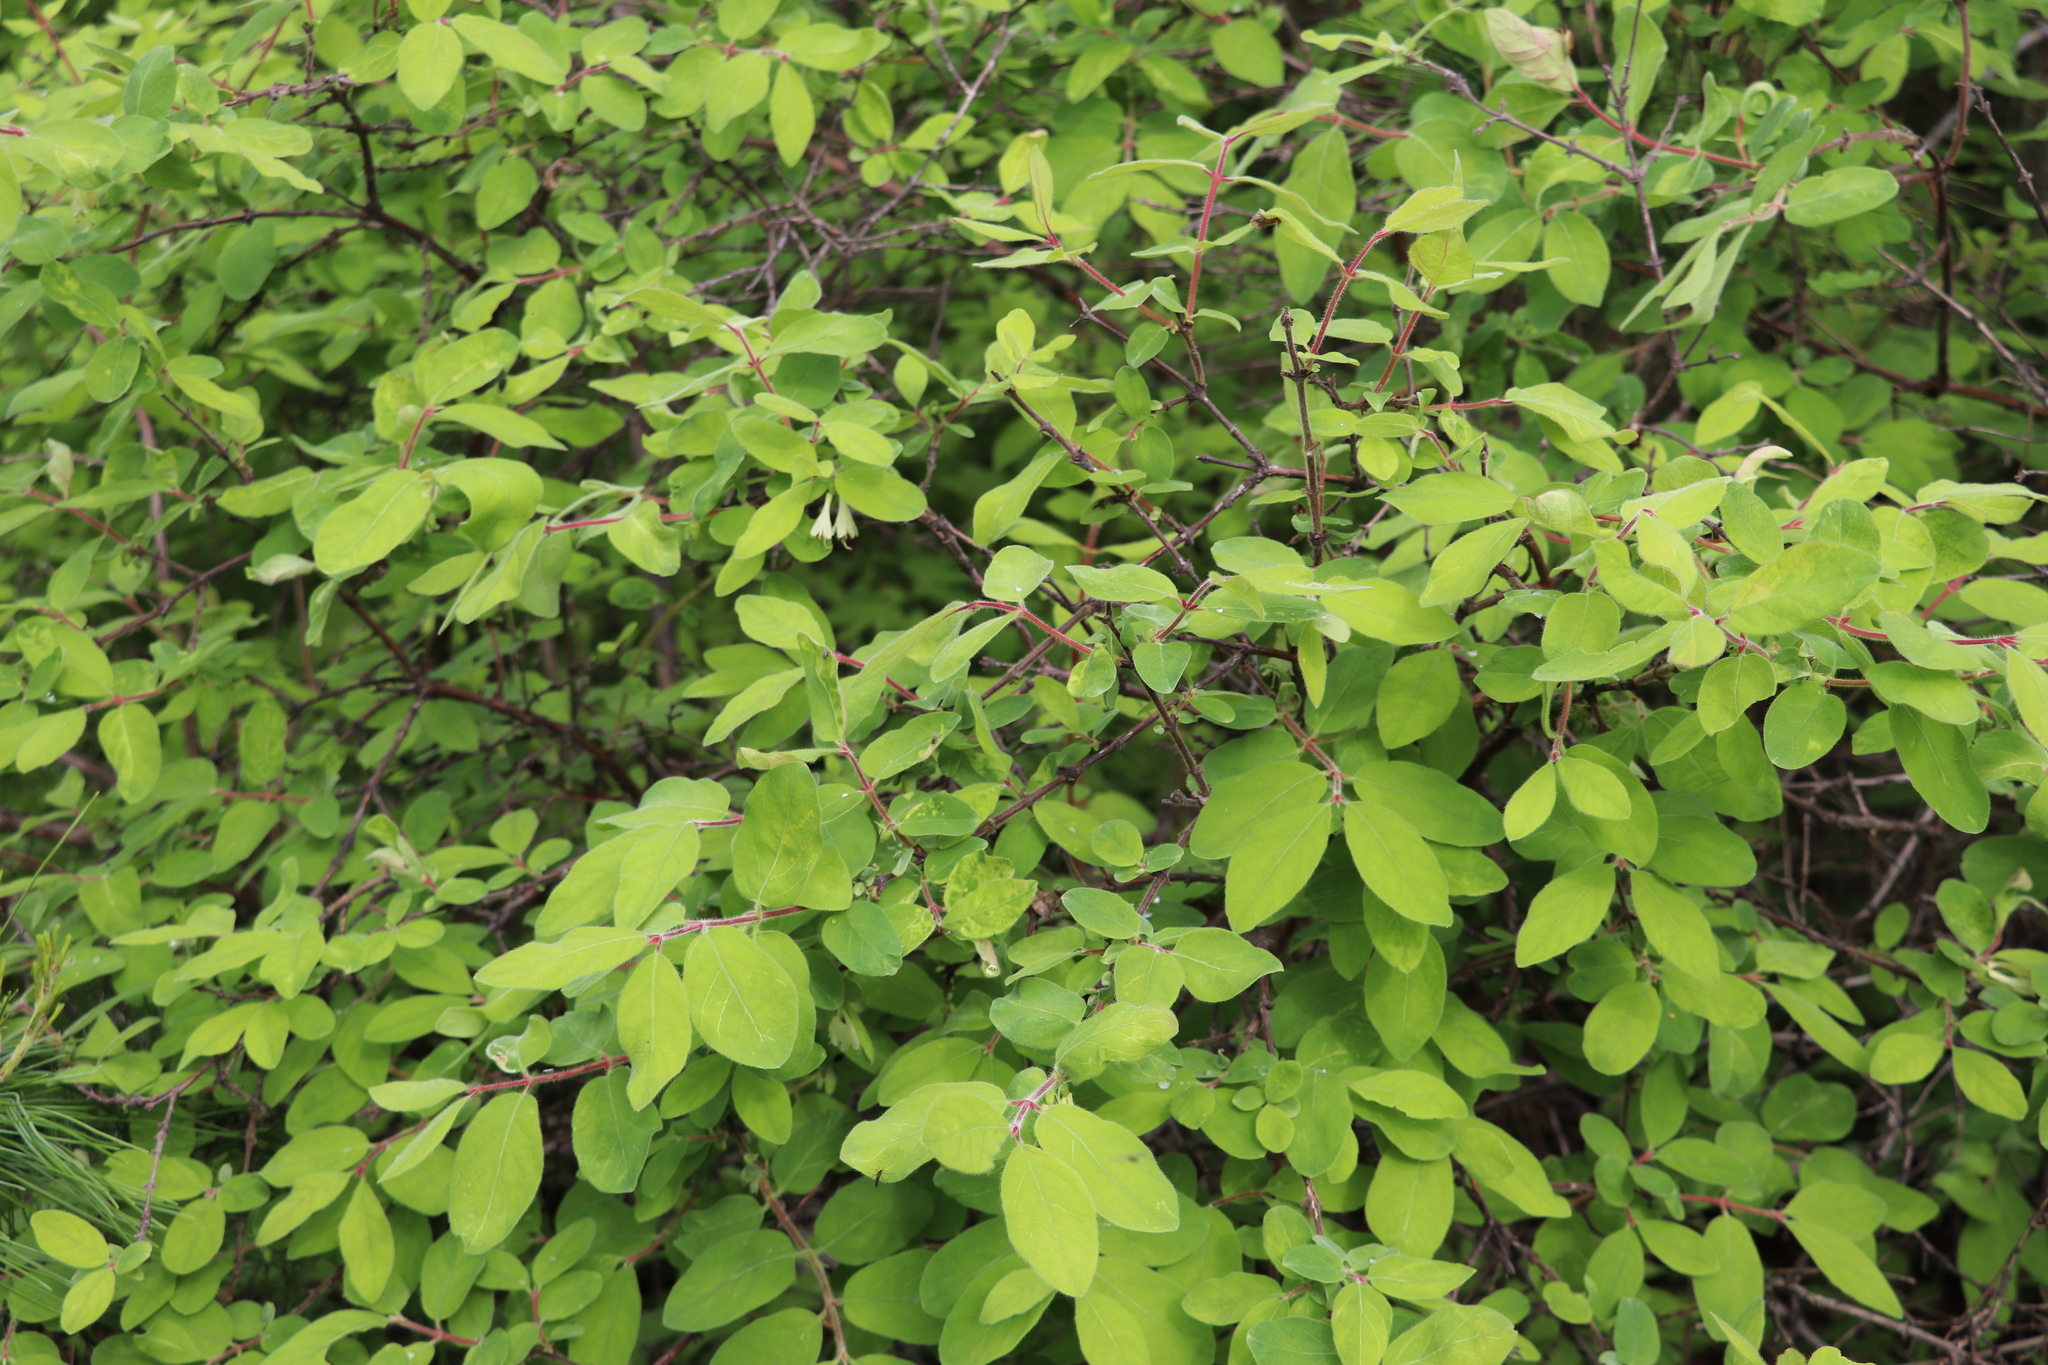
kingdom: Plantae
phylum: Tracheophyta
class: Magnoliopsida
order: Dipsacales
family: Caprifoliaceae
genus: Lonicera
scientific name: Lonicera caerulea
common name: Blue honeysuckle
